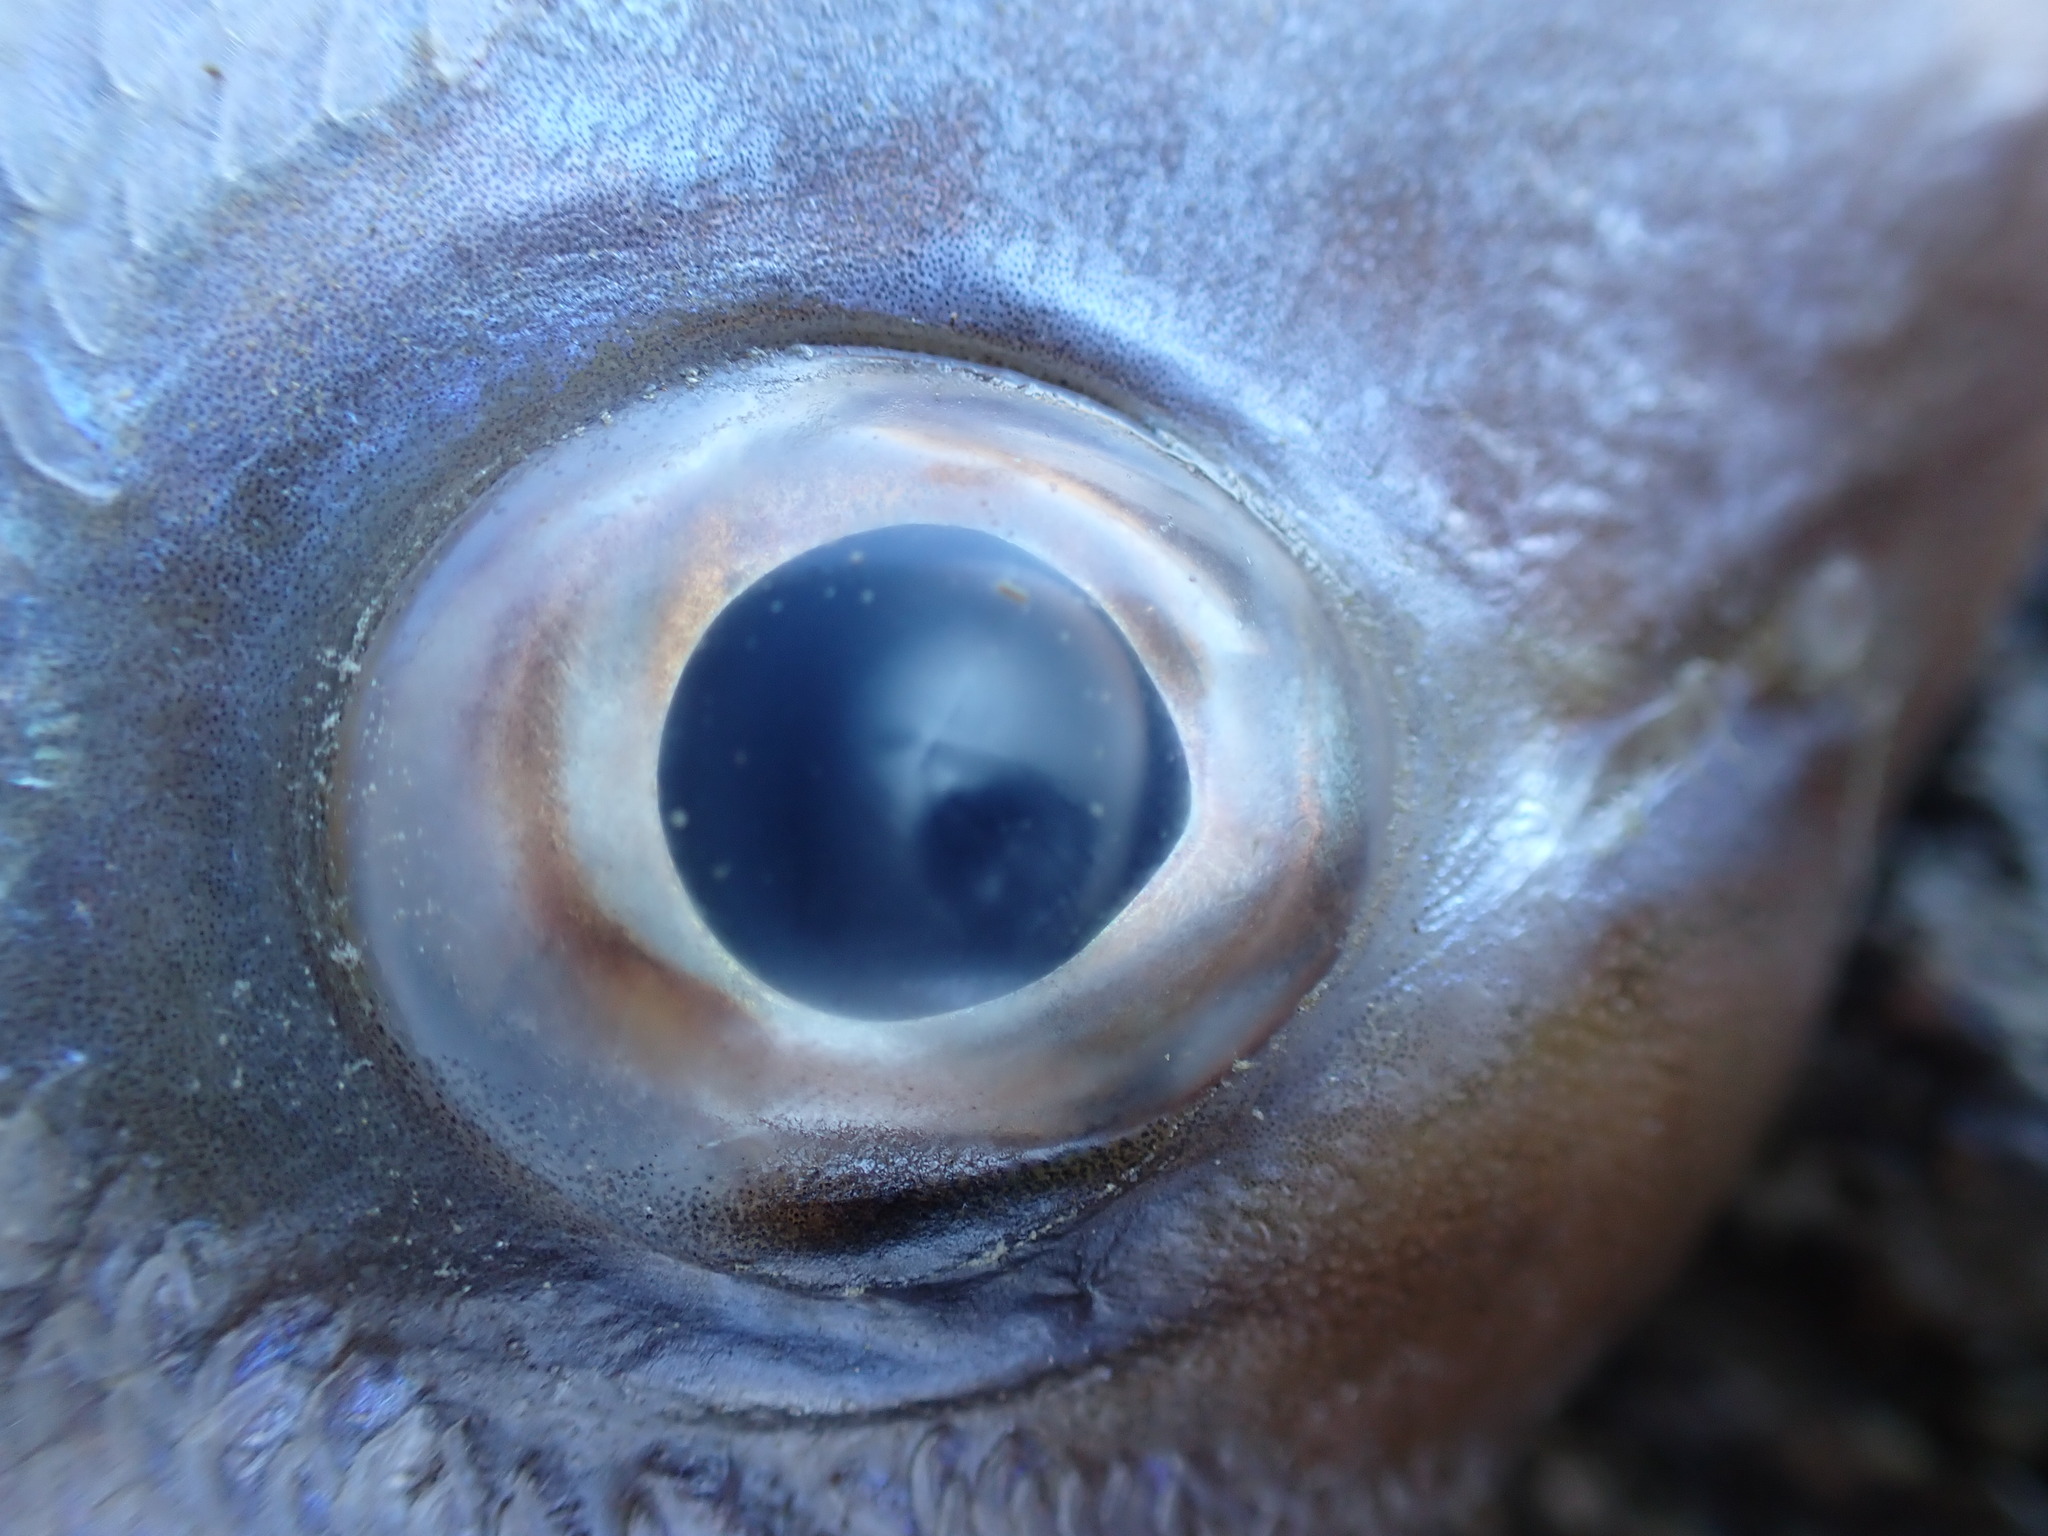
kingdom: Animalia
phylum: Chordata
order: Perciformes
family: Sparidae
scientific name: Sparidae
